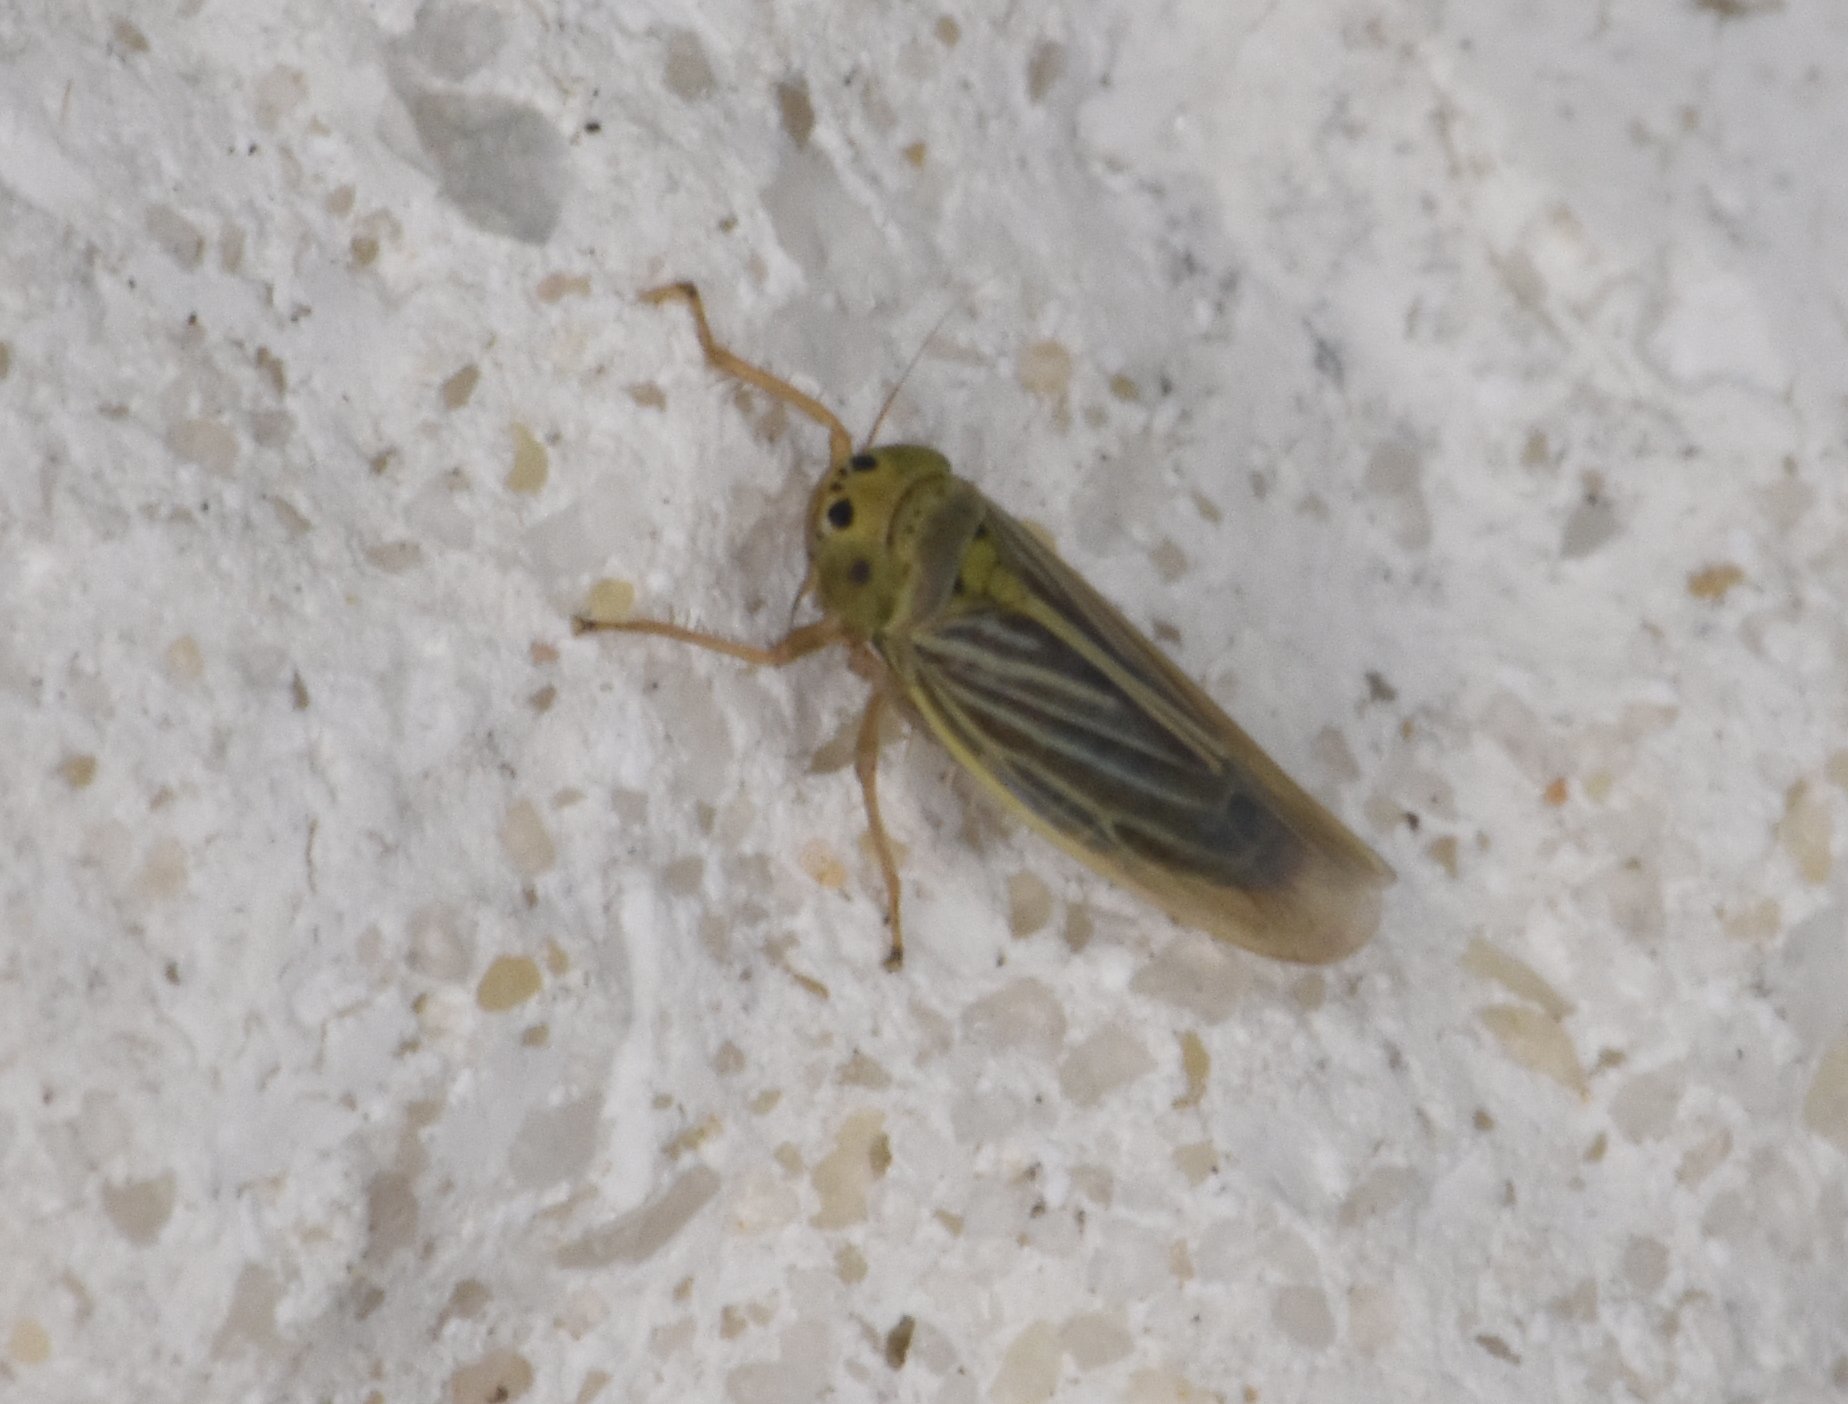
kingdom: Animalia
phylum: Arthropoda
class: Insecta
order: Hemiptera
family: Cicadellidae
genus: Graminella
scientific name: Graminella cognita
